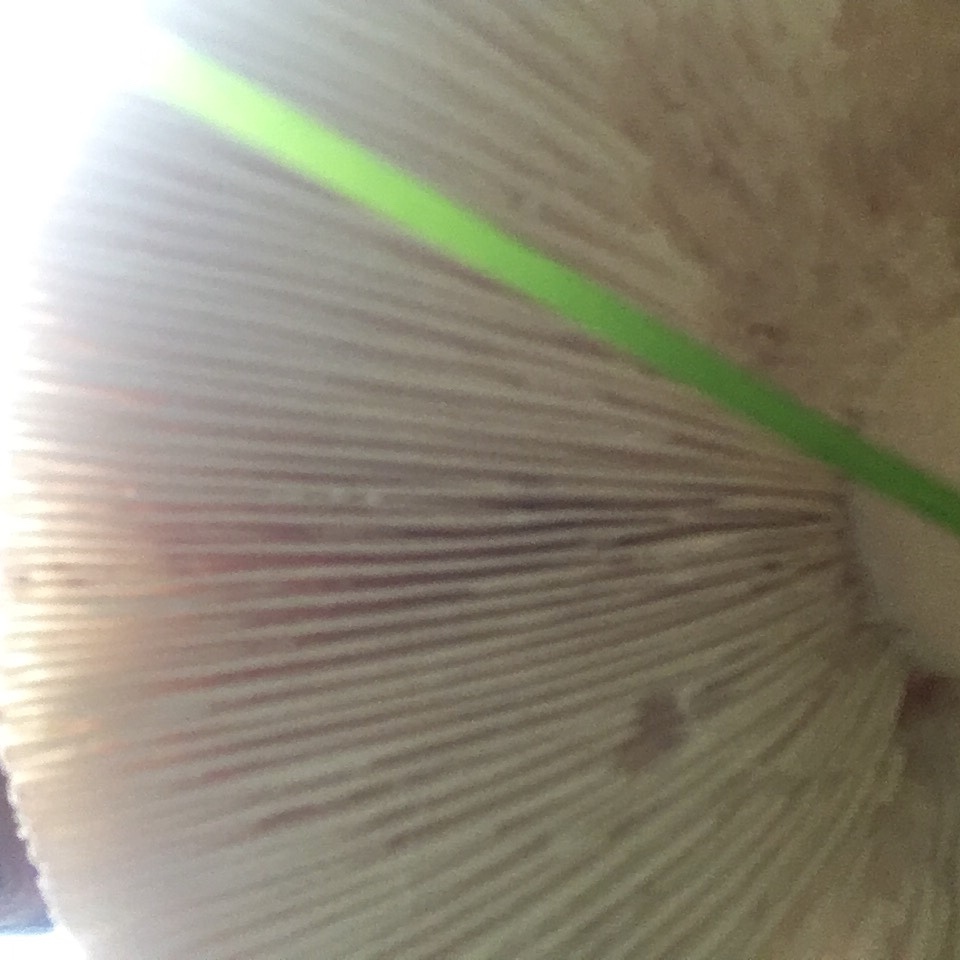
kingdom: Fungi
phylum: Basidiomycota
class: Agaricomycetes
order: Agaricales
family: Amanitaceae
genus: Amanita
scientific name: Amanita pantherina
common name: Panthercap
